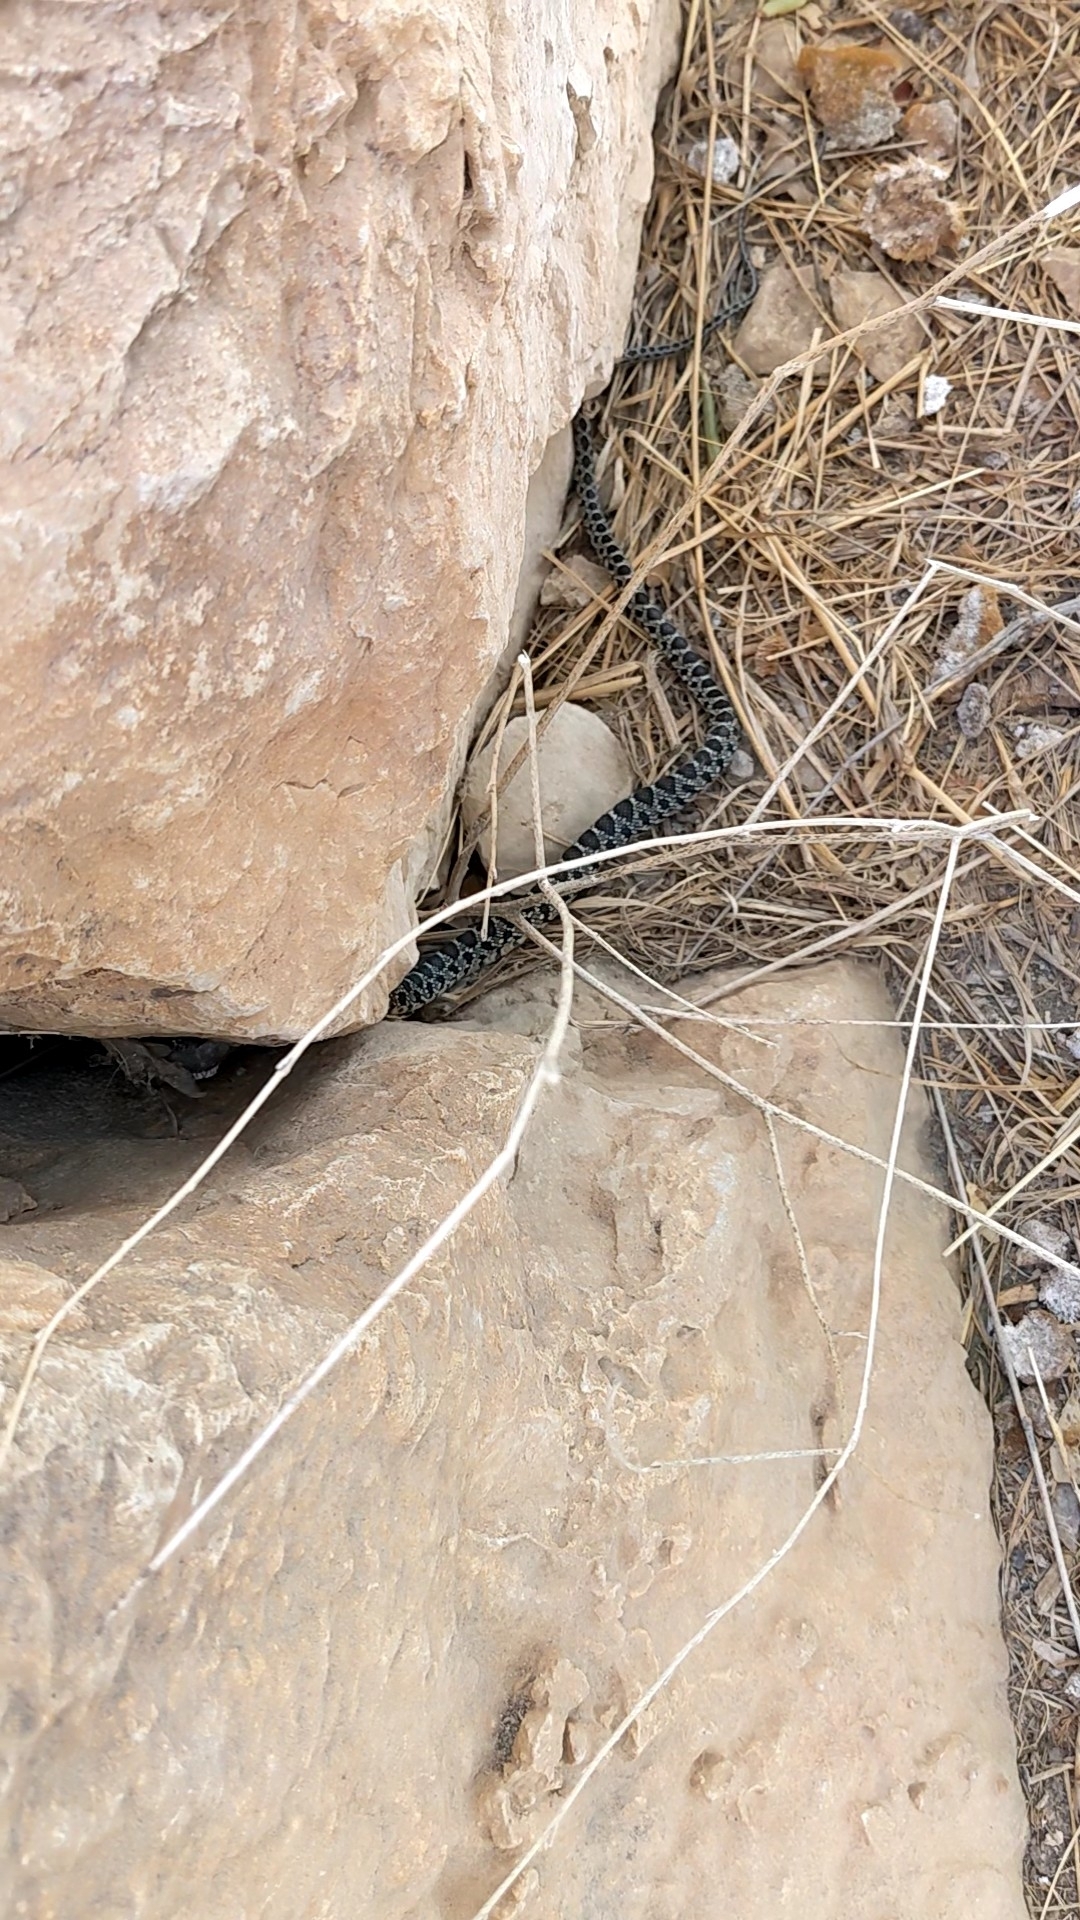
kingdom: Animalia
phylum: Chordata
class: Squamata
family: Colubridae
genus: Hemorrhois
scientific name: Hemorrhois hippocrepis
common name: Horseshoe whip snake
